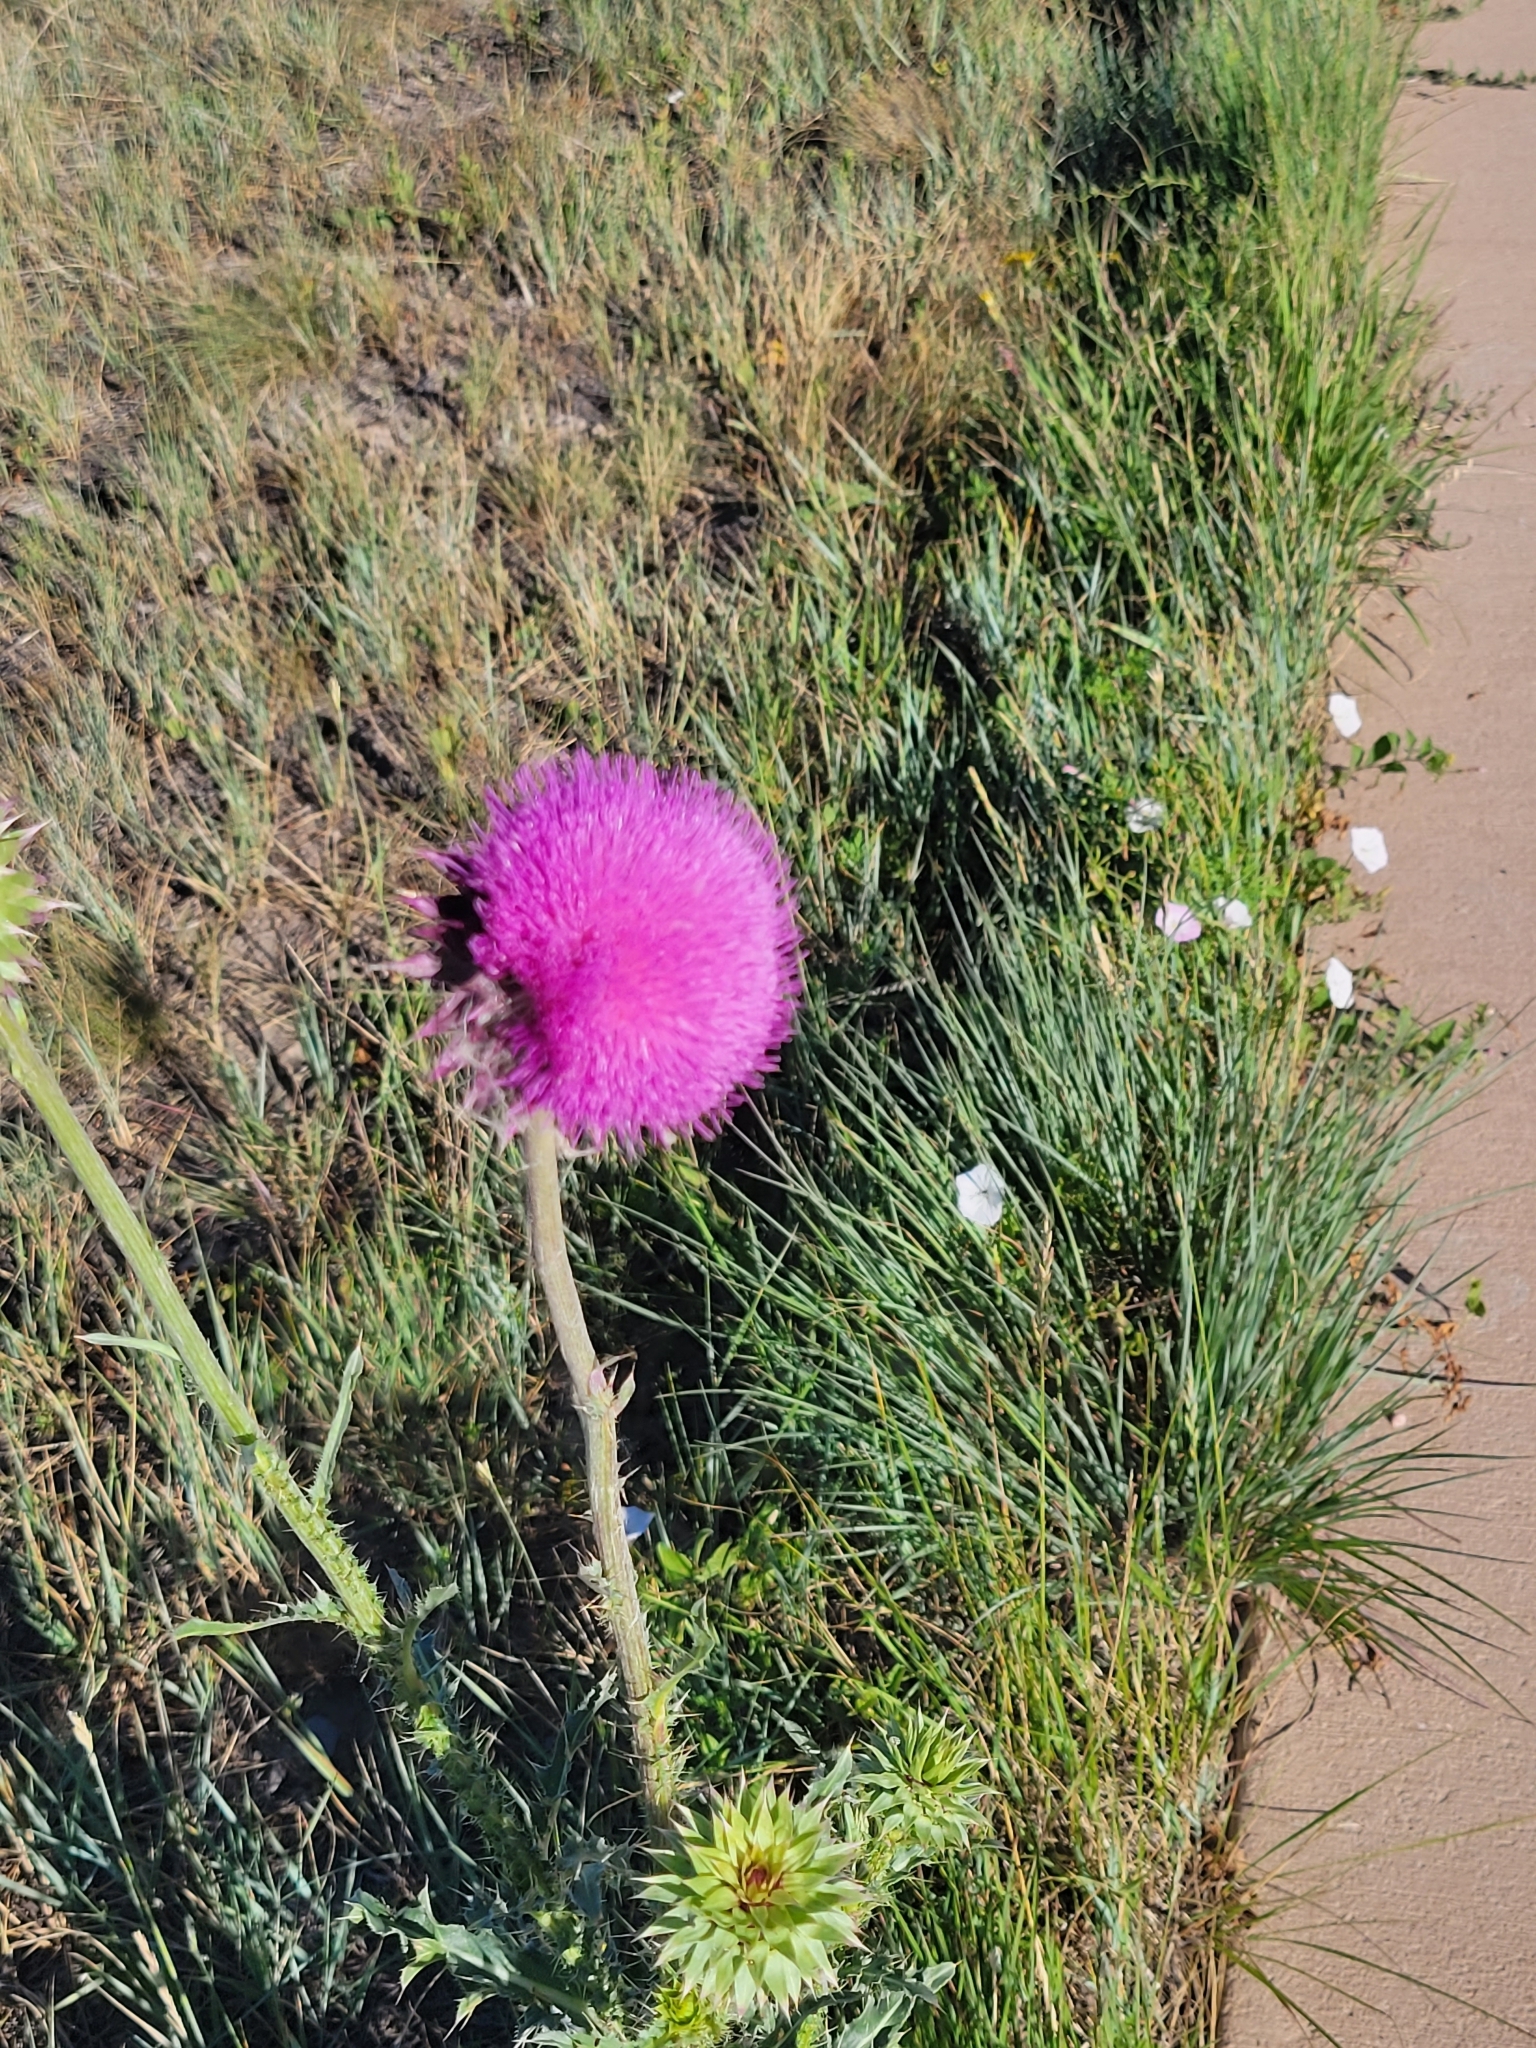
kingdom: Plantae
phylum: Tracheophyta
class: Magnoliopsida
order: Asterales
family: Asteraceae
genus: Carduus
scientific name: Carduus nutans
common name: Musk thistle
